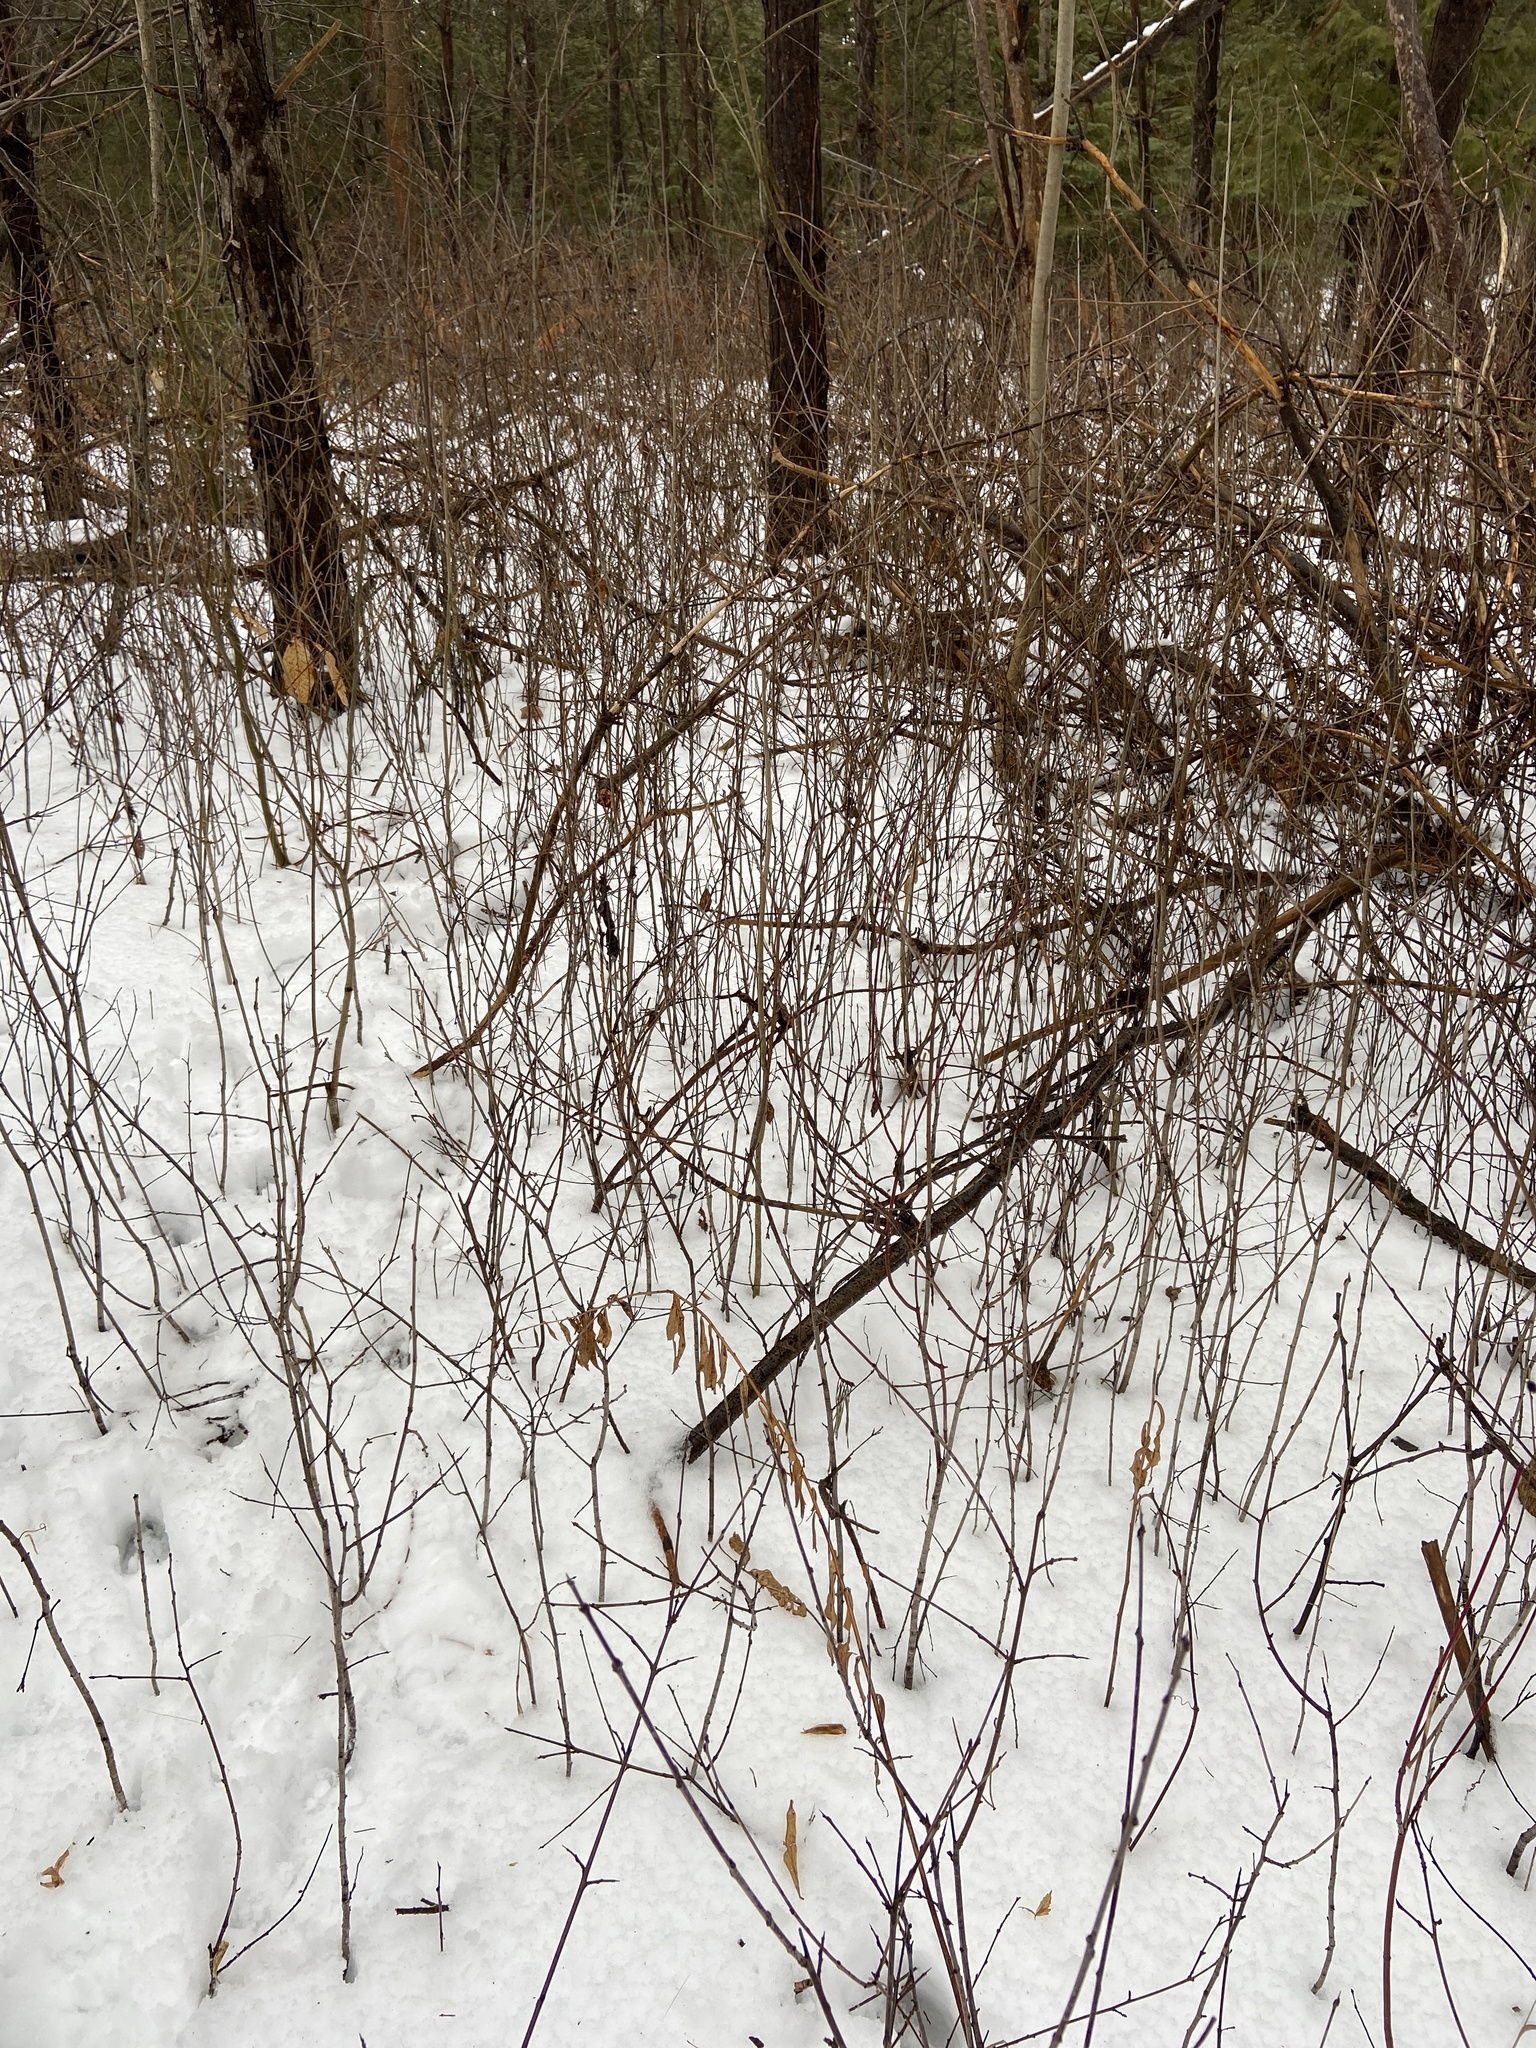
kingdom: Plantae
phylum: Tracheophyta
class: Magnoliopsida
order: Rosales
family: Rhamnaceae
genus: Rhamnus
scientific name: Rhamnus cathartica
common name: Common buckthorn
